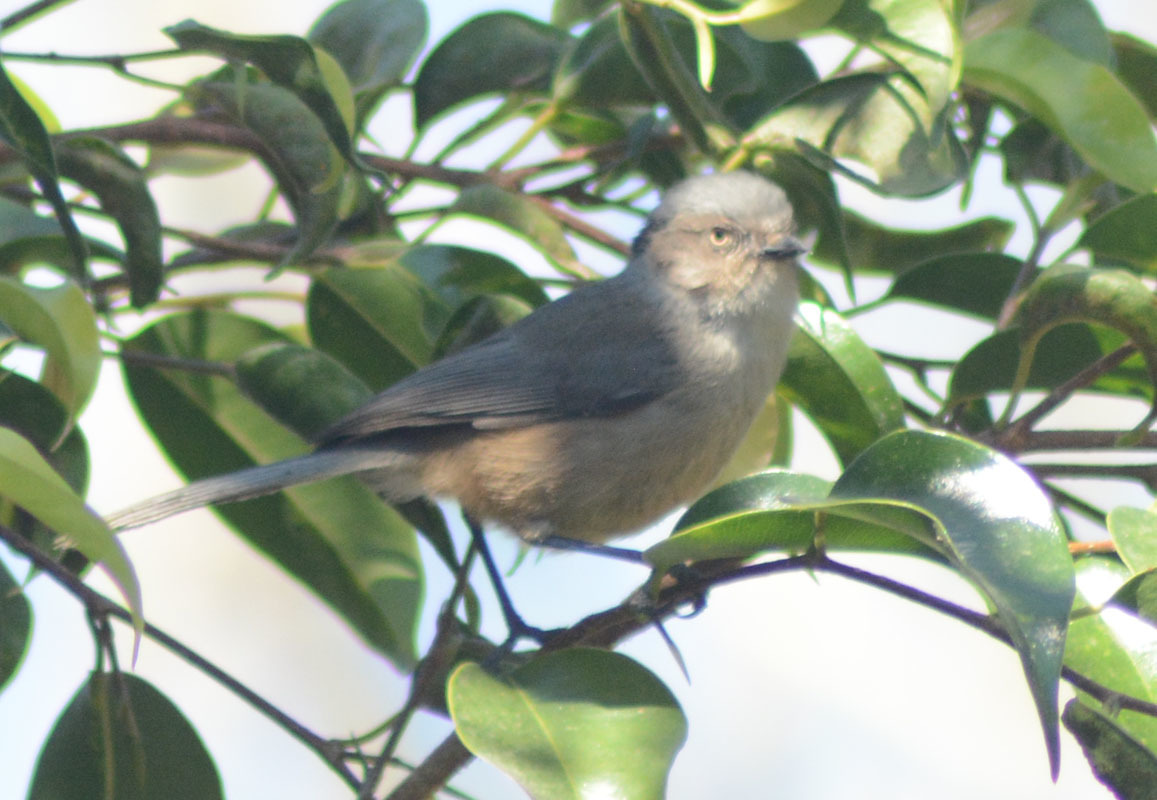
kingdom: Animalia
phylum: Chordata
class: Aves
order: Passeriformes
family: Aegithalidae
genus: Psaltriparus
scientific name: Psaltriparus minimus
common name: American bushtit
